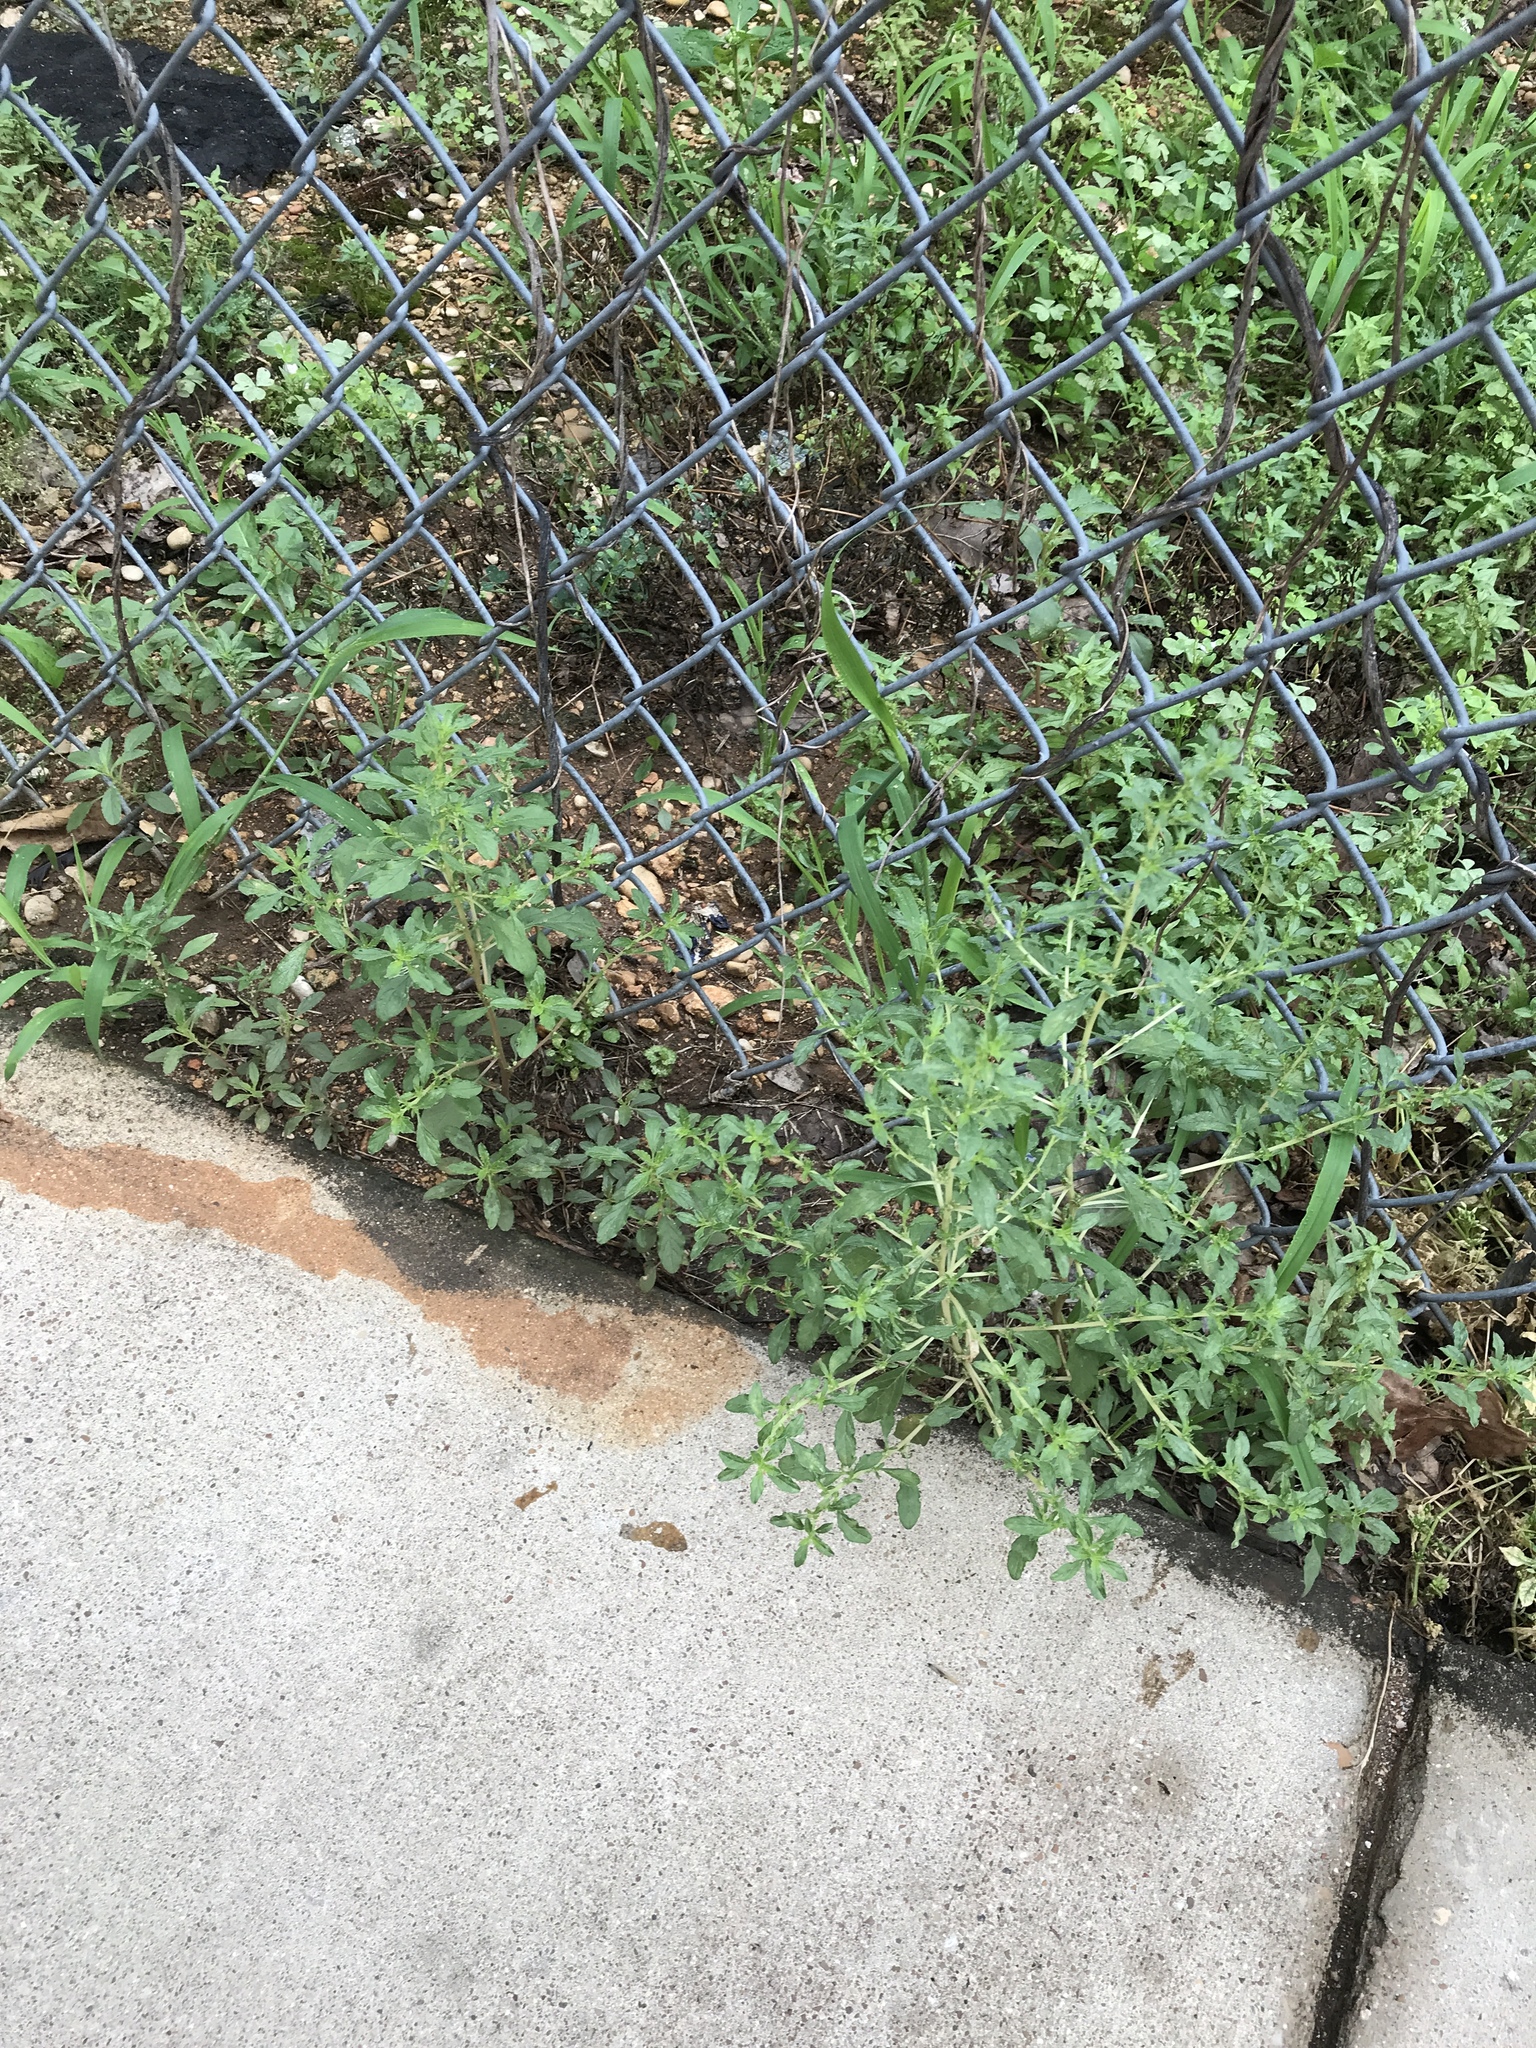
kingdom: Plantae
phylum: Tracheophyta
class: Magnoliopsida
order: Caryophyllales
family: Amaranthaceae
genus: Amaranthus
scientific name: Amaranthus albus
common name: White pigweed
